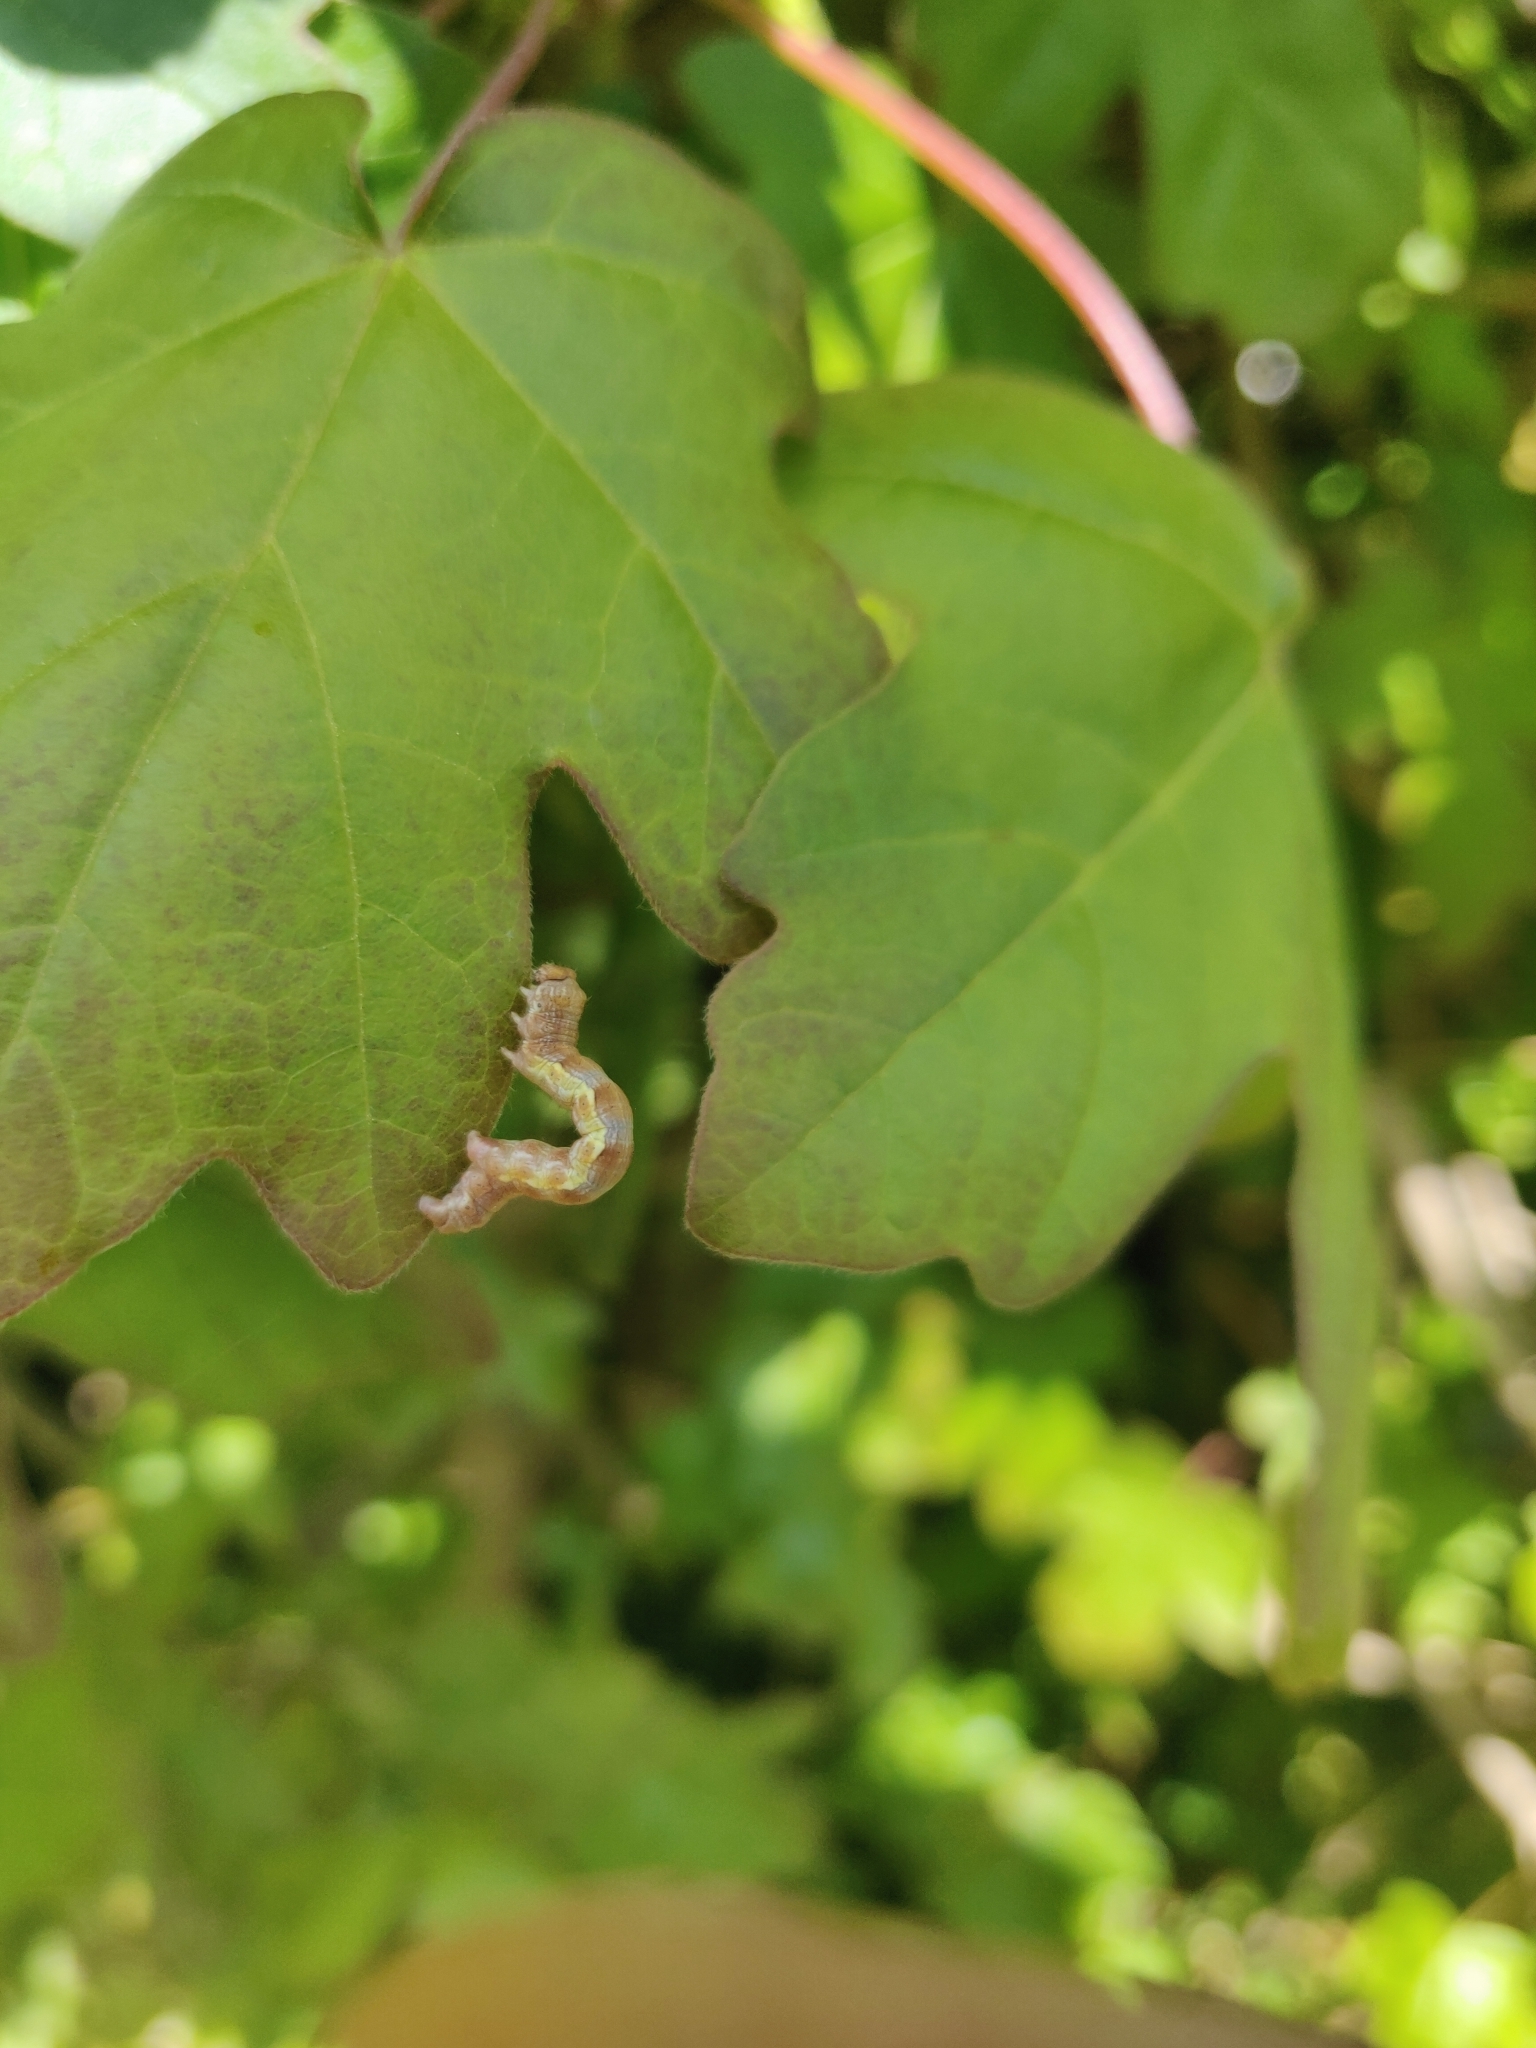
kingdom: Animalia
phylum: Arthropoda
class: Insecta
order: Lepidoptera
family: Geometridae
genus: Erannis
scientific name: Erannis defoliaria
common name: Mottled umber
